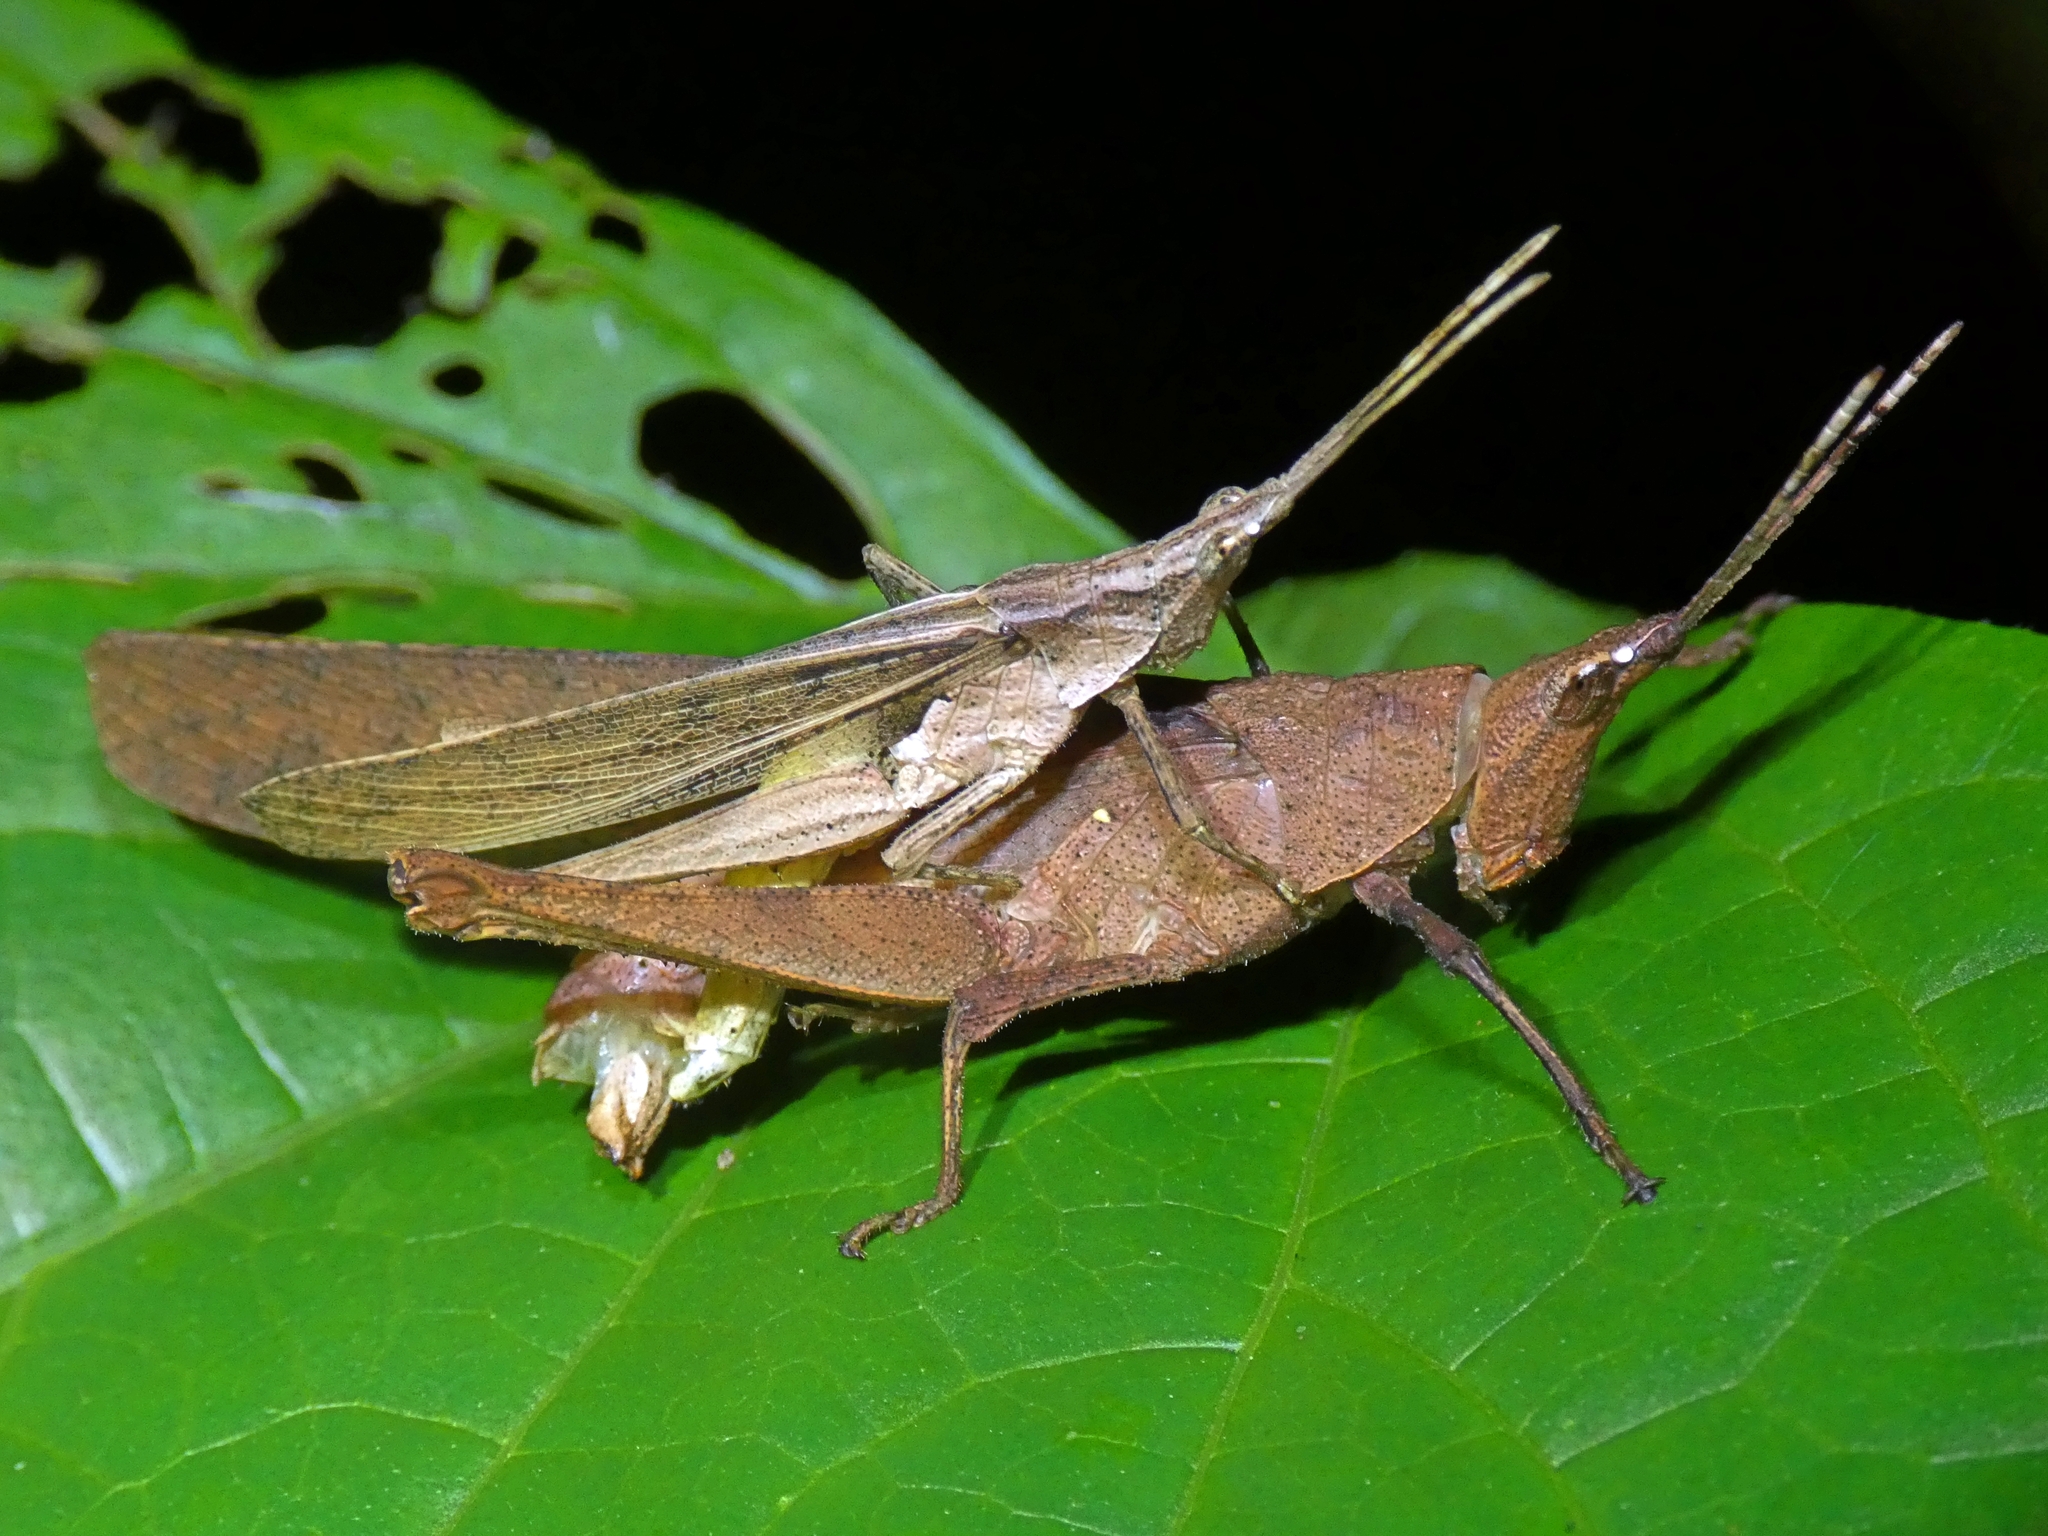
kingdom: Animalia
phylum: Arthropoda
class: Insecta
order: Orthoptera
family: Pyrgomorphidae
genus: Desmoptera
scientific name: Desmoptera truncatipennis
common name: Large forest pyrgomorph
